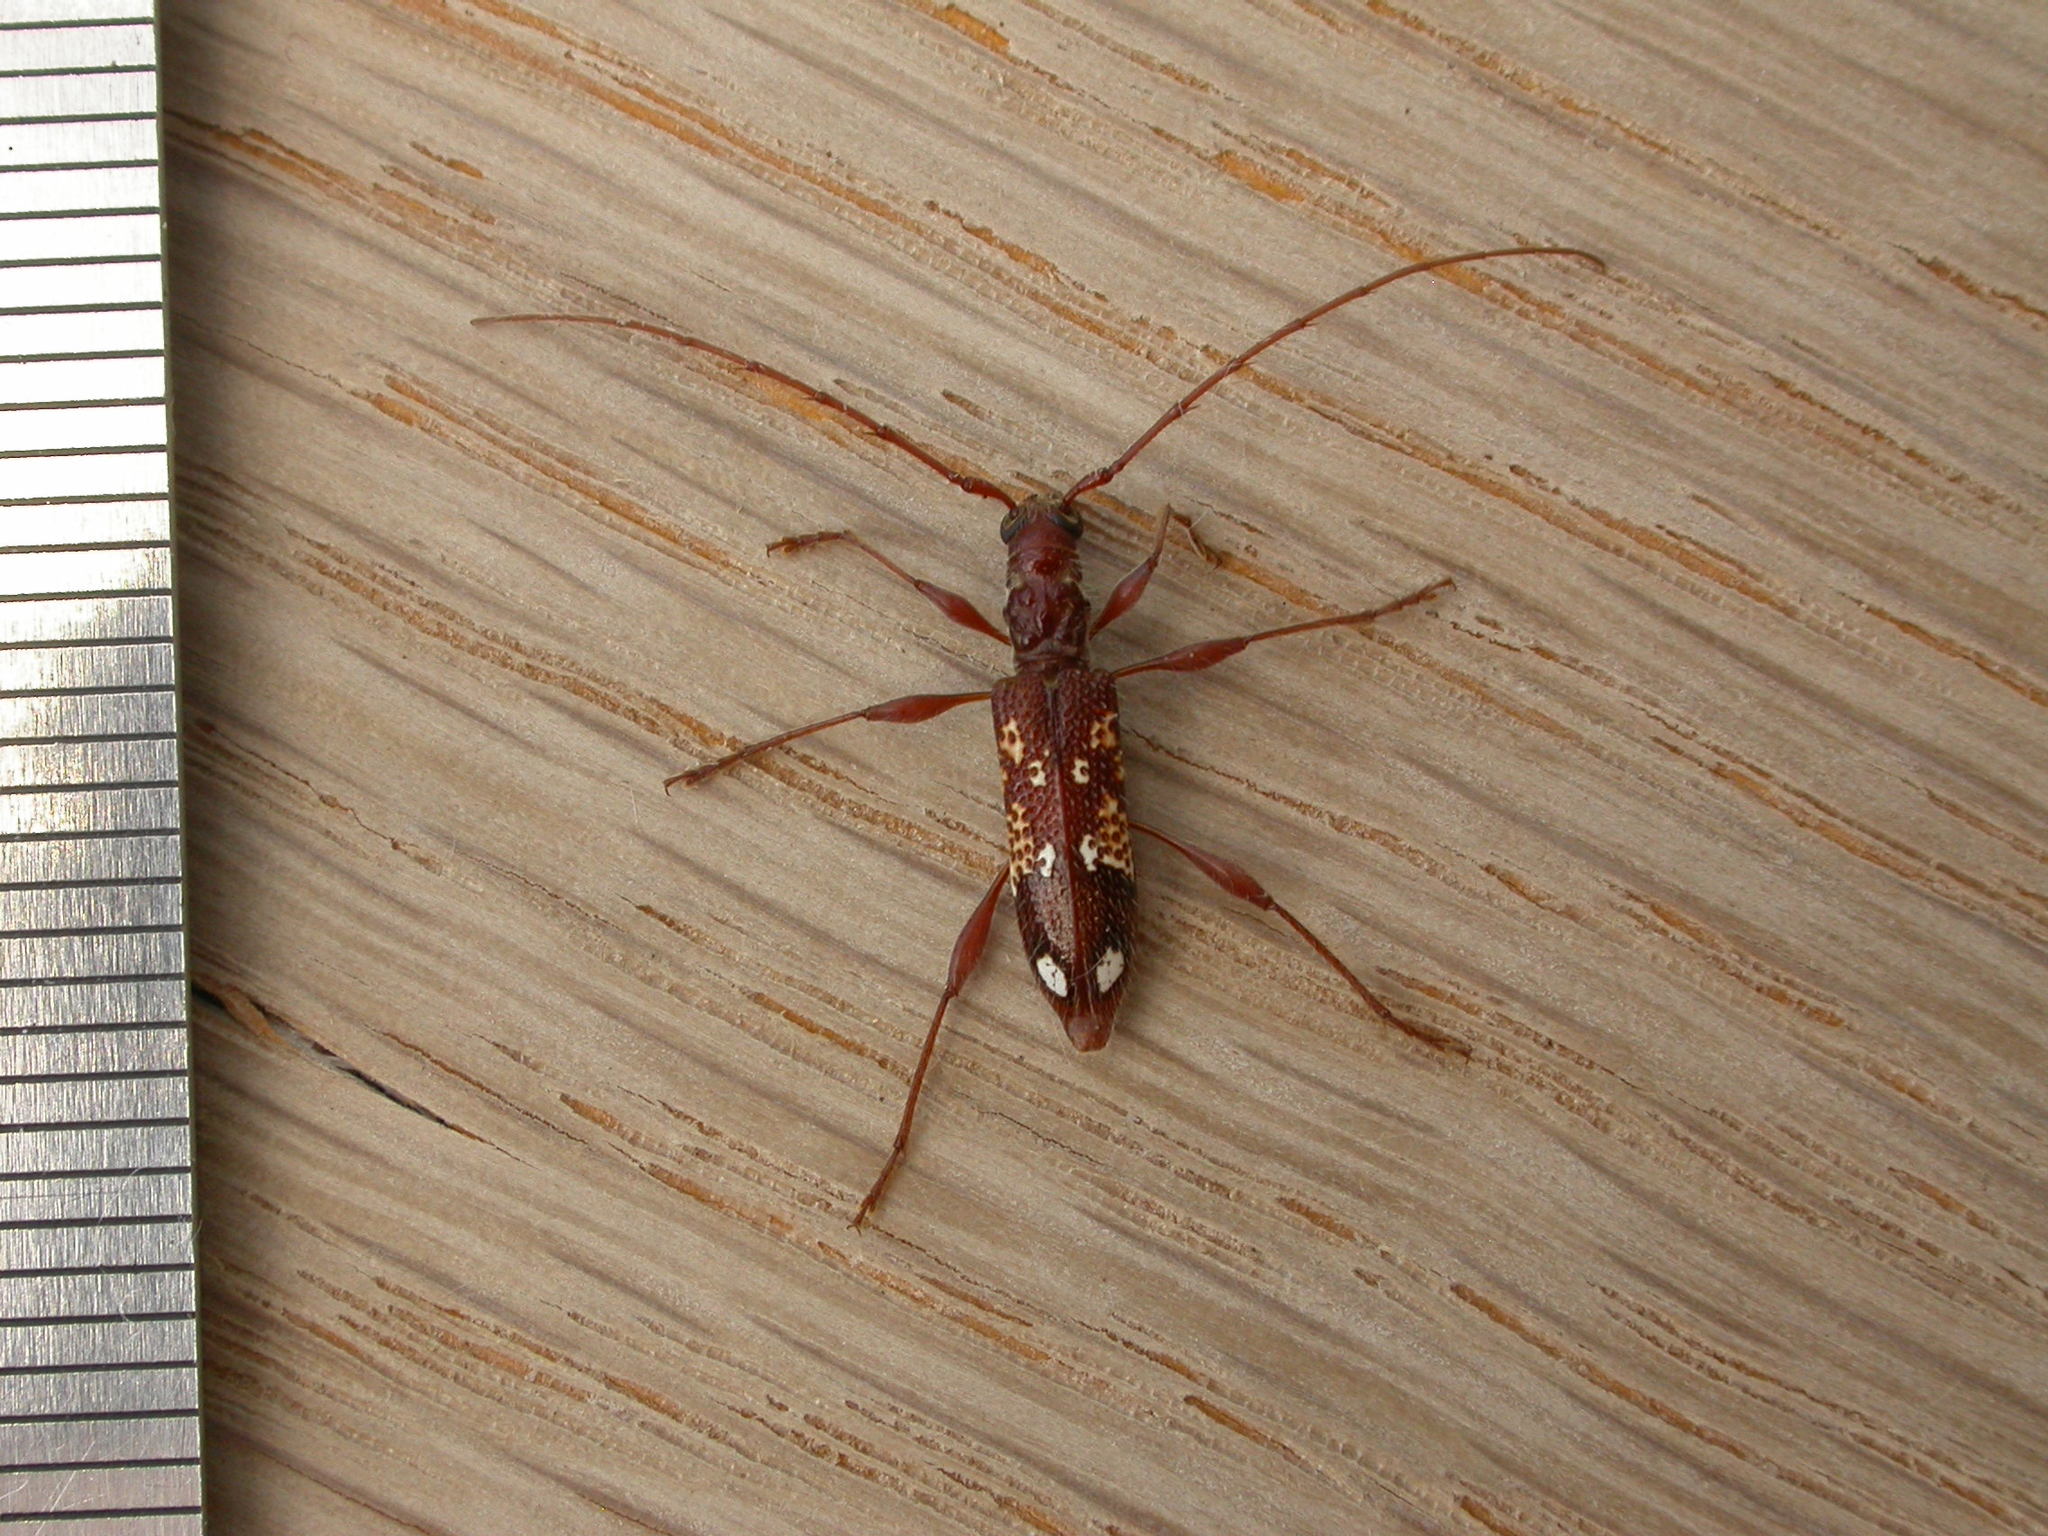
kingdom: Animalia
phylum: Arthropoda
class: Insecta
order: Coleoptera
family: Cerambycidae
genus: Coptocercus
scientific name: Coptocercus biguttatus
